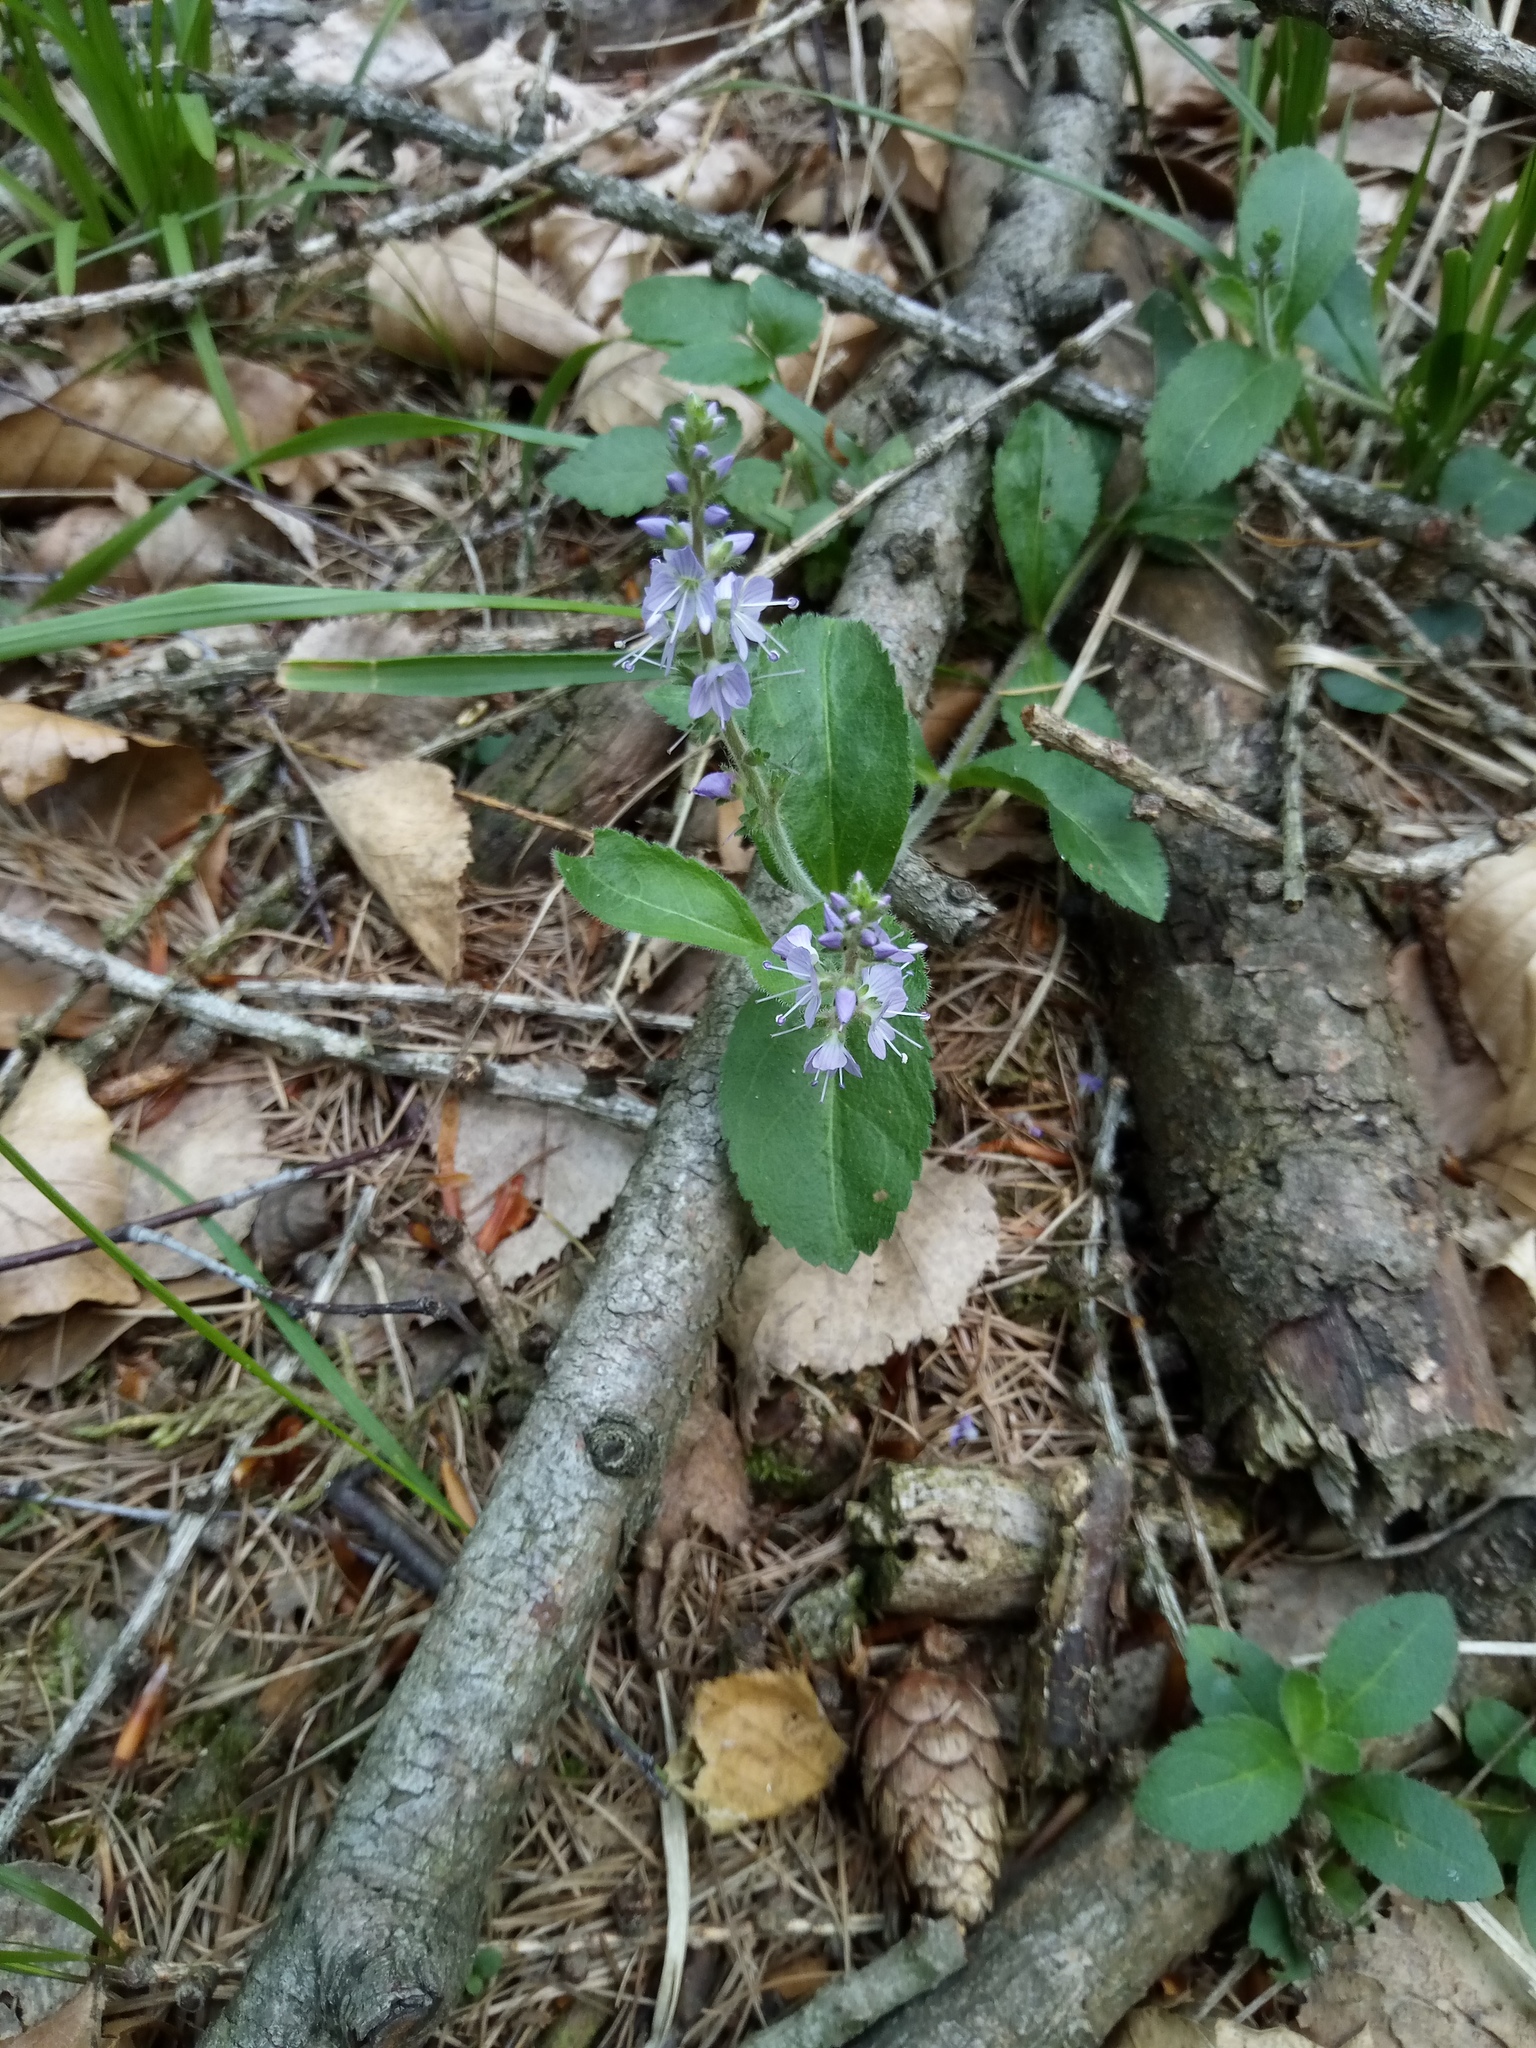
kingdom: Plantae
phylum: Tracheophyta
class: Magnoliopsida
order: Lamiales
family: Plantaginaceae
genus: Veronica
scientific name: Veronica officinalis
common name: Common speedwell
